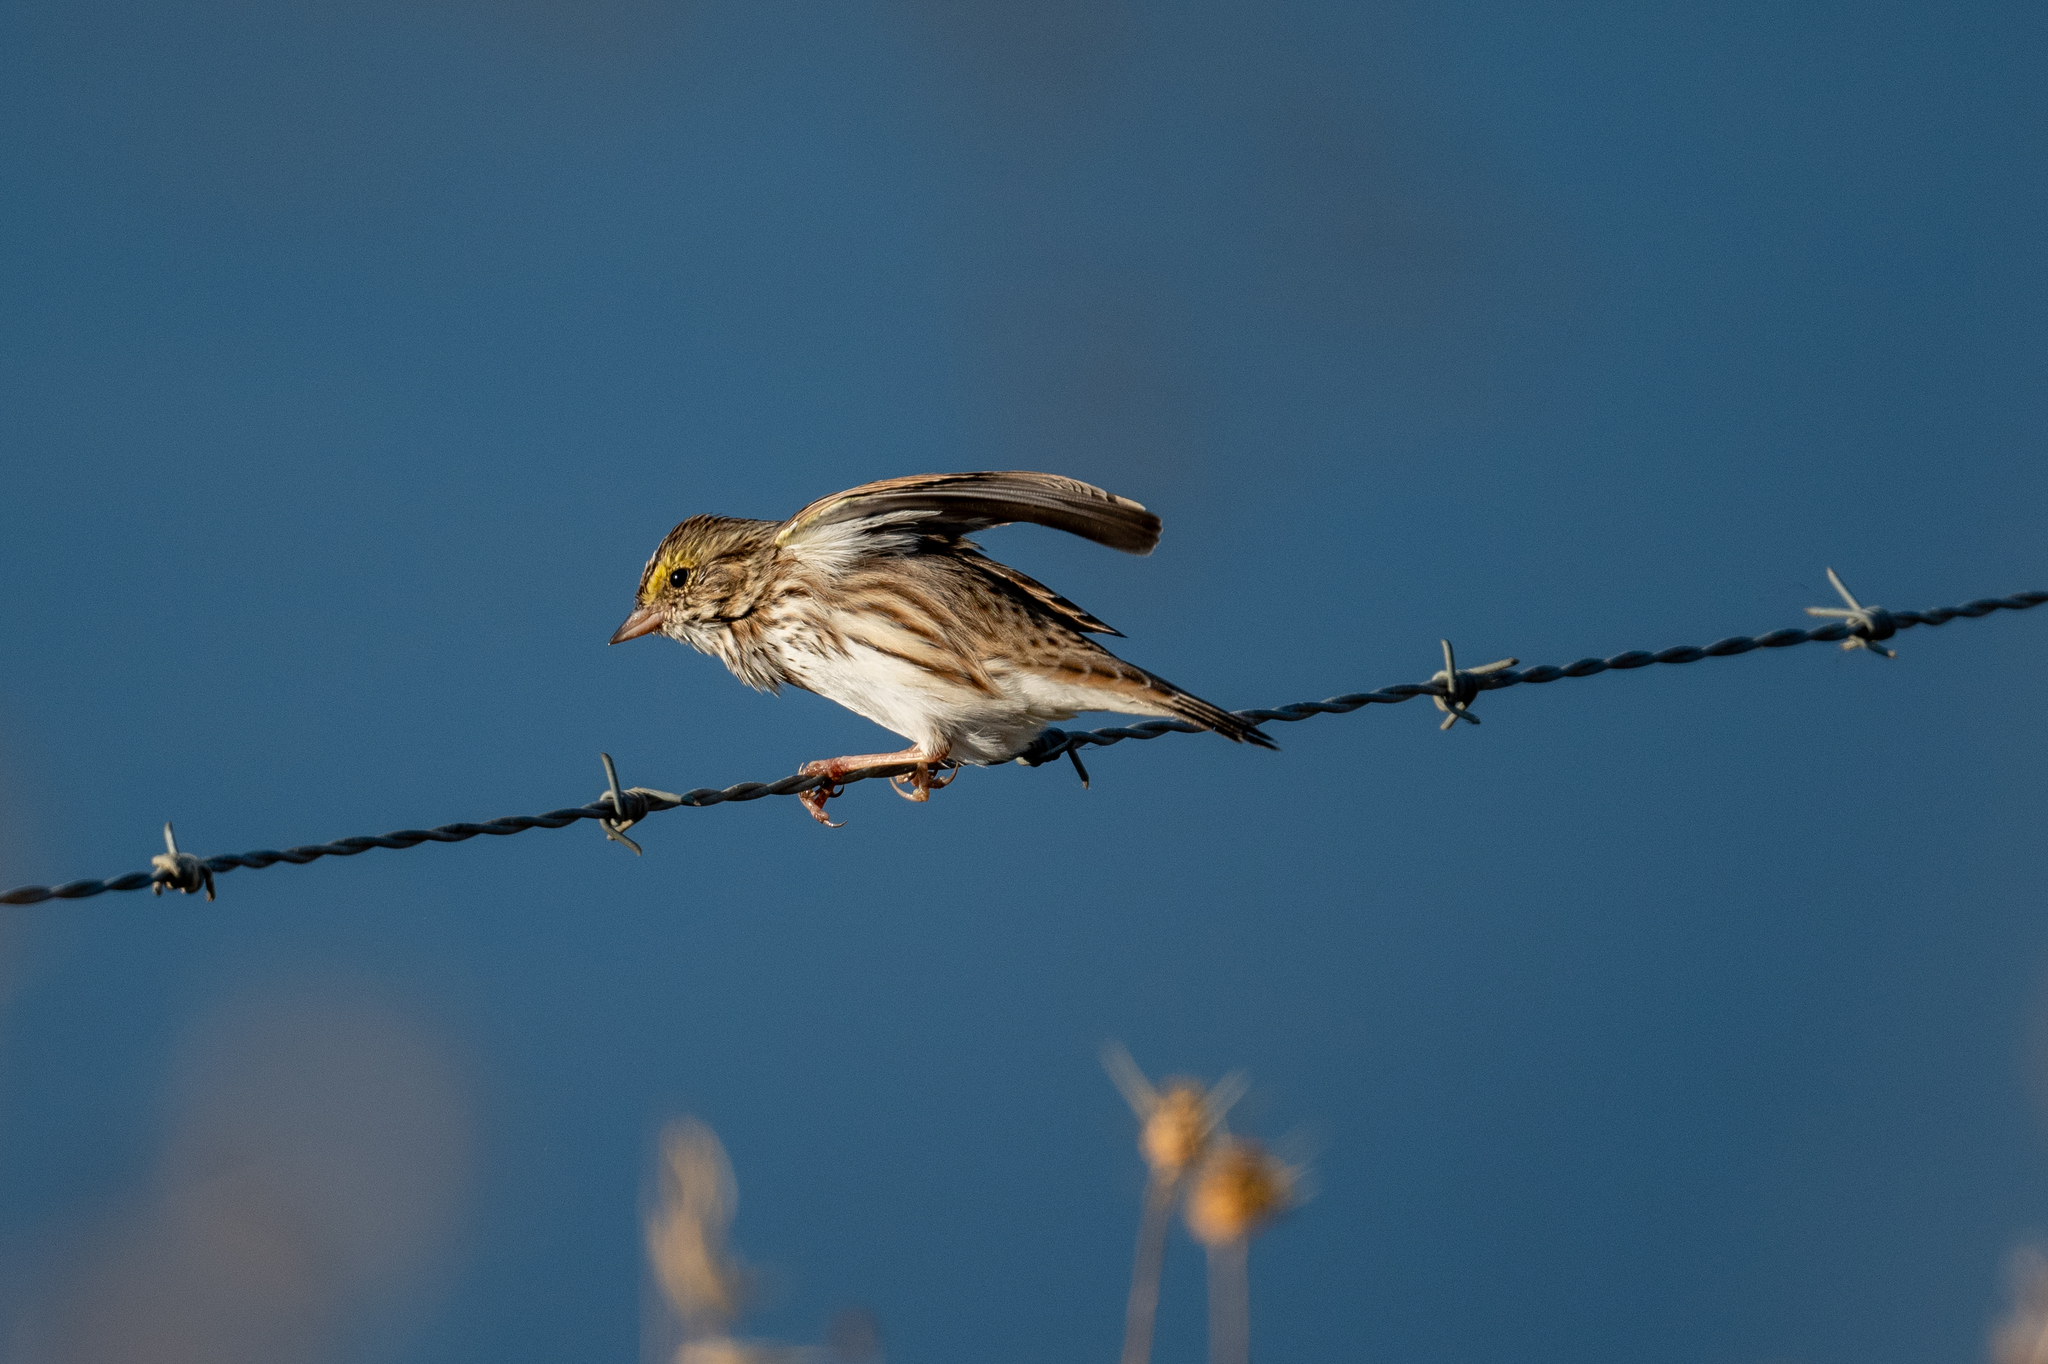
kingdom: Animalia
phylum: Chordata
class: Aves
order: Passeriformes
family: Passerellidae
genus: Passerculus
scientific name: Passerculus sandwichensis
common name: Savannah sparrow
